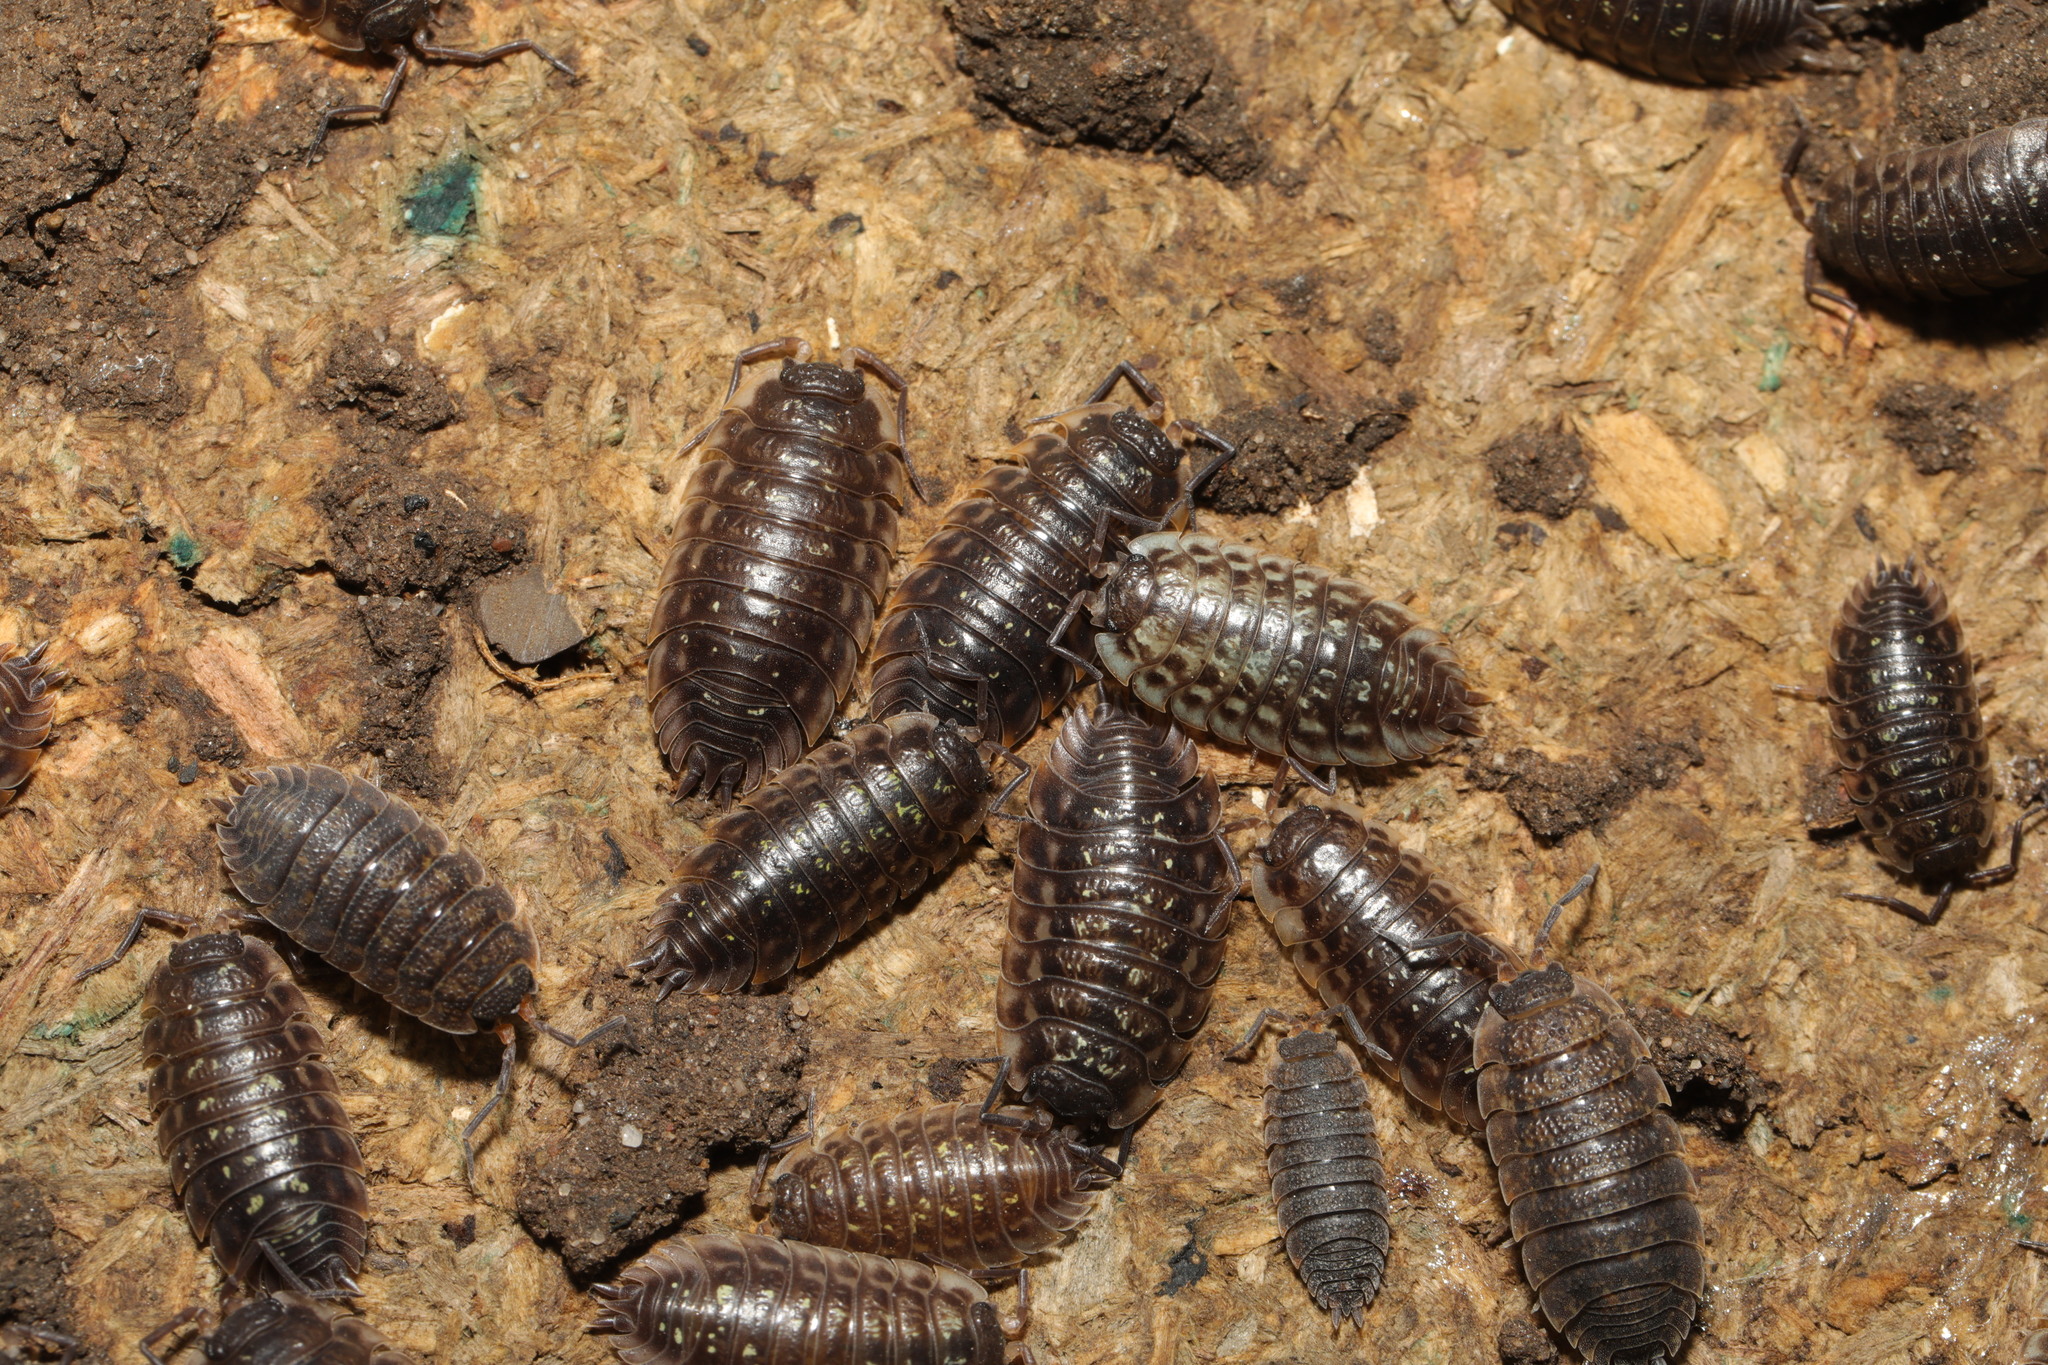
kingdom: Animalia
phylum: Arthropoda
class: Malacostraca
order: Isopoda
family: Oniscidae
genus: Oniscus
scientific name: Oniscus asellus
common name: Common shiny woodlouse
